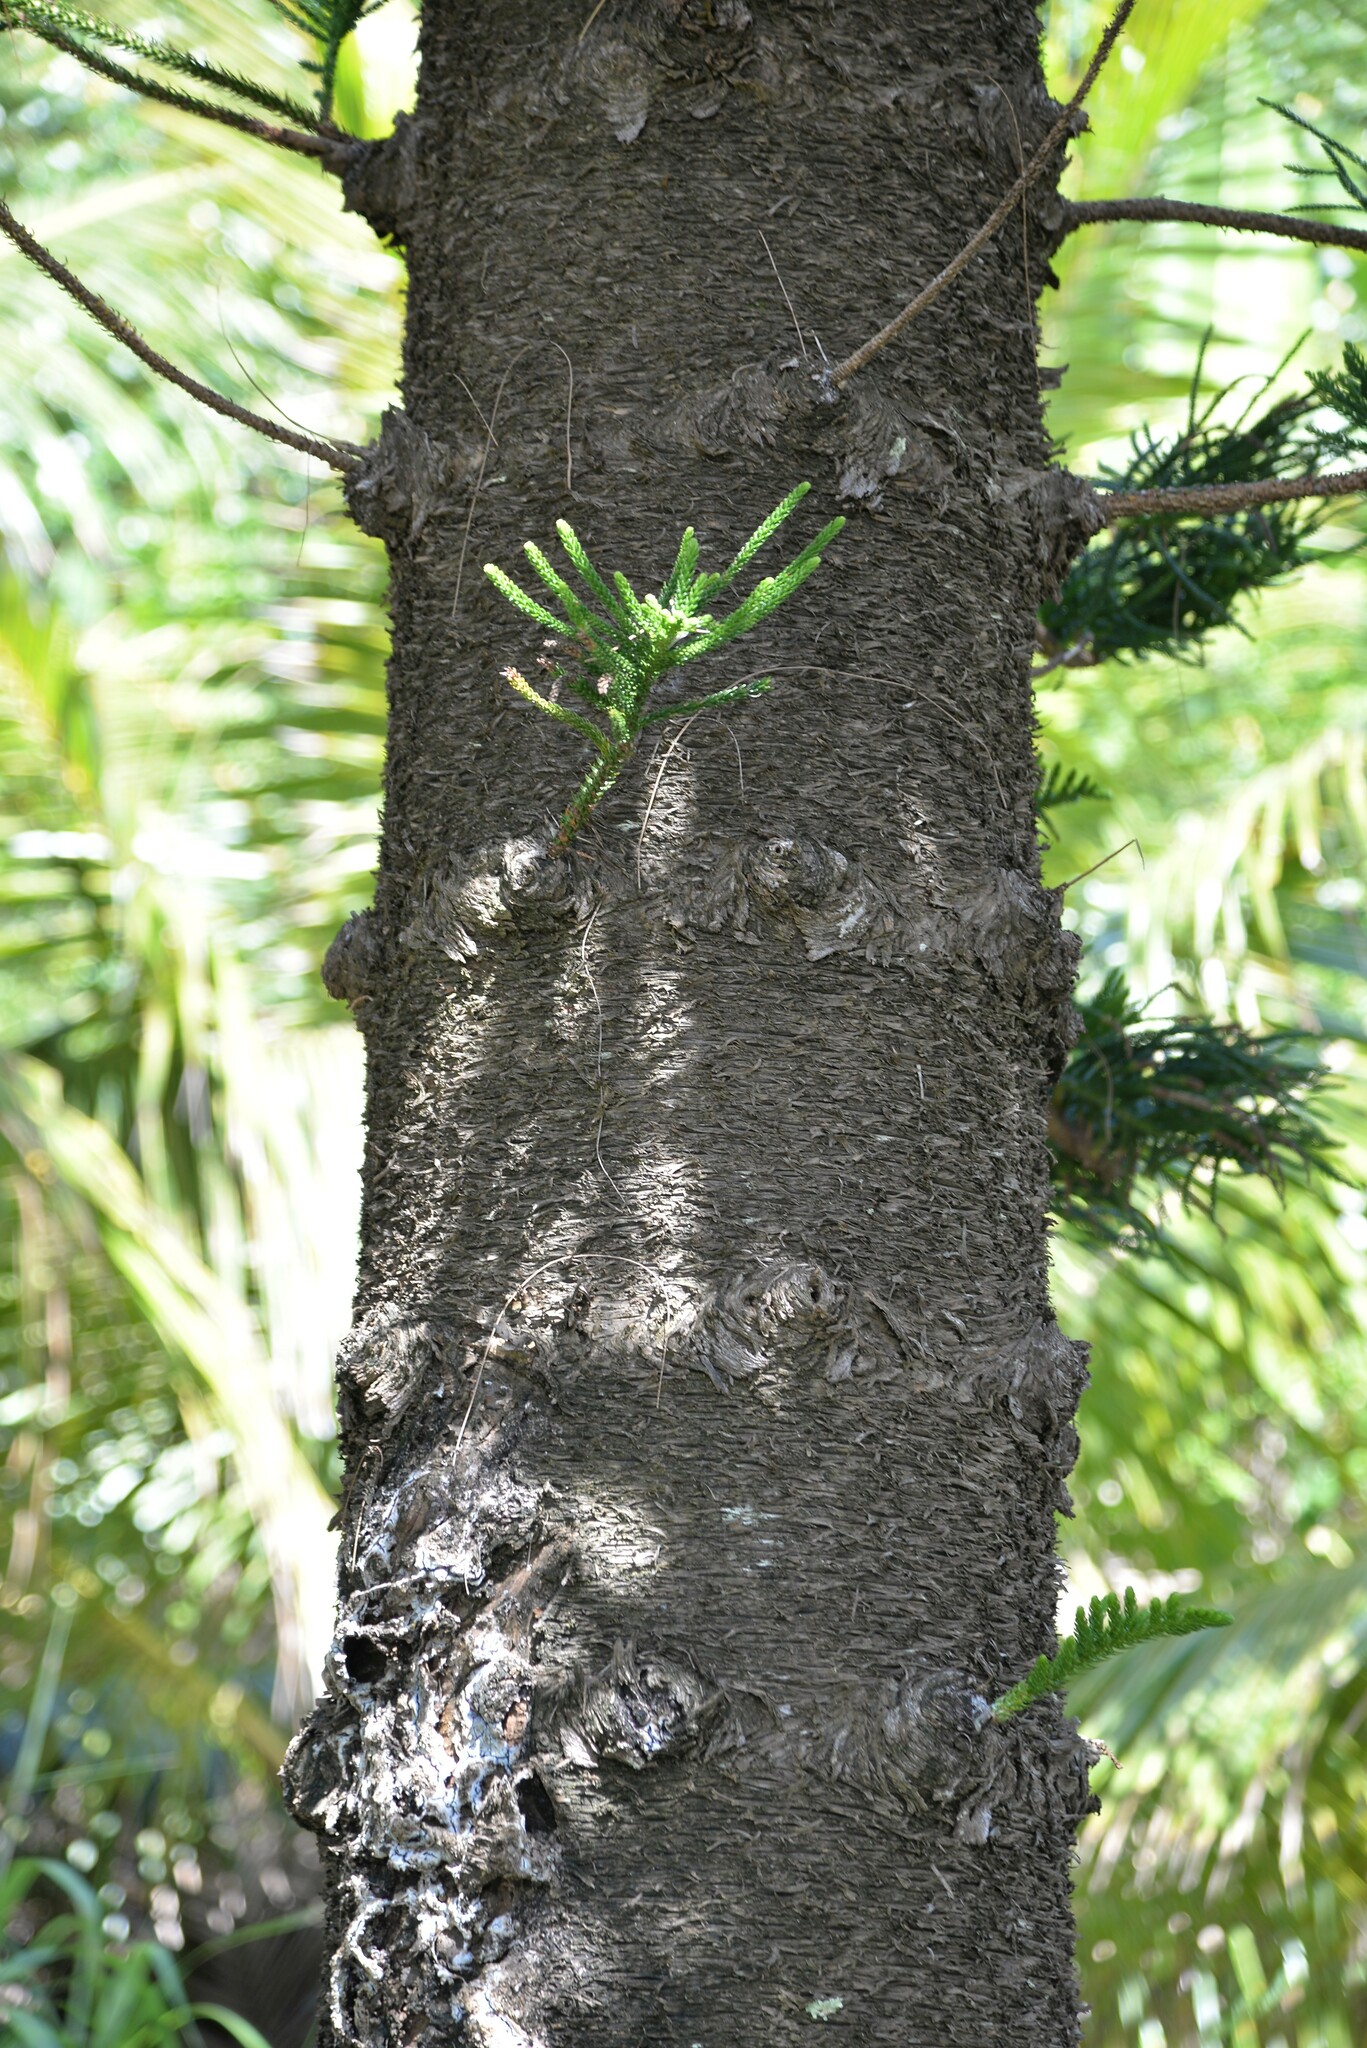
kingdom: Plantae
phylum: Tracheophyta
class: Pinopsida
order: Pinales
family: Araucariaceae
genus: Araucaria
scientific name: Araucaria columnaris
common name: Coral reef araucaria
